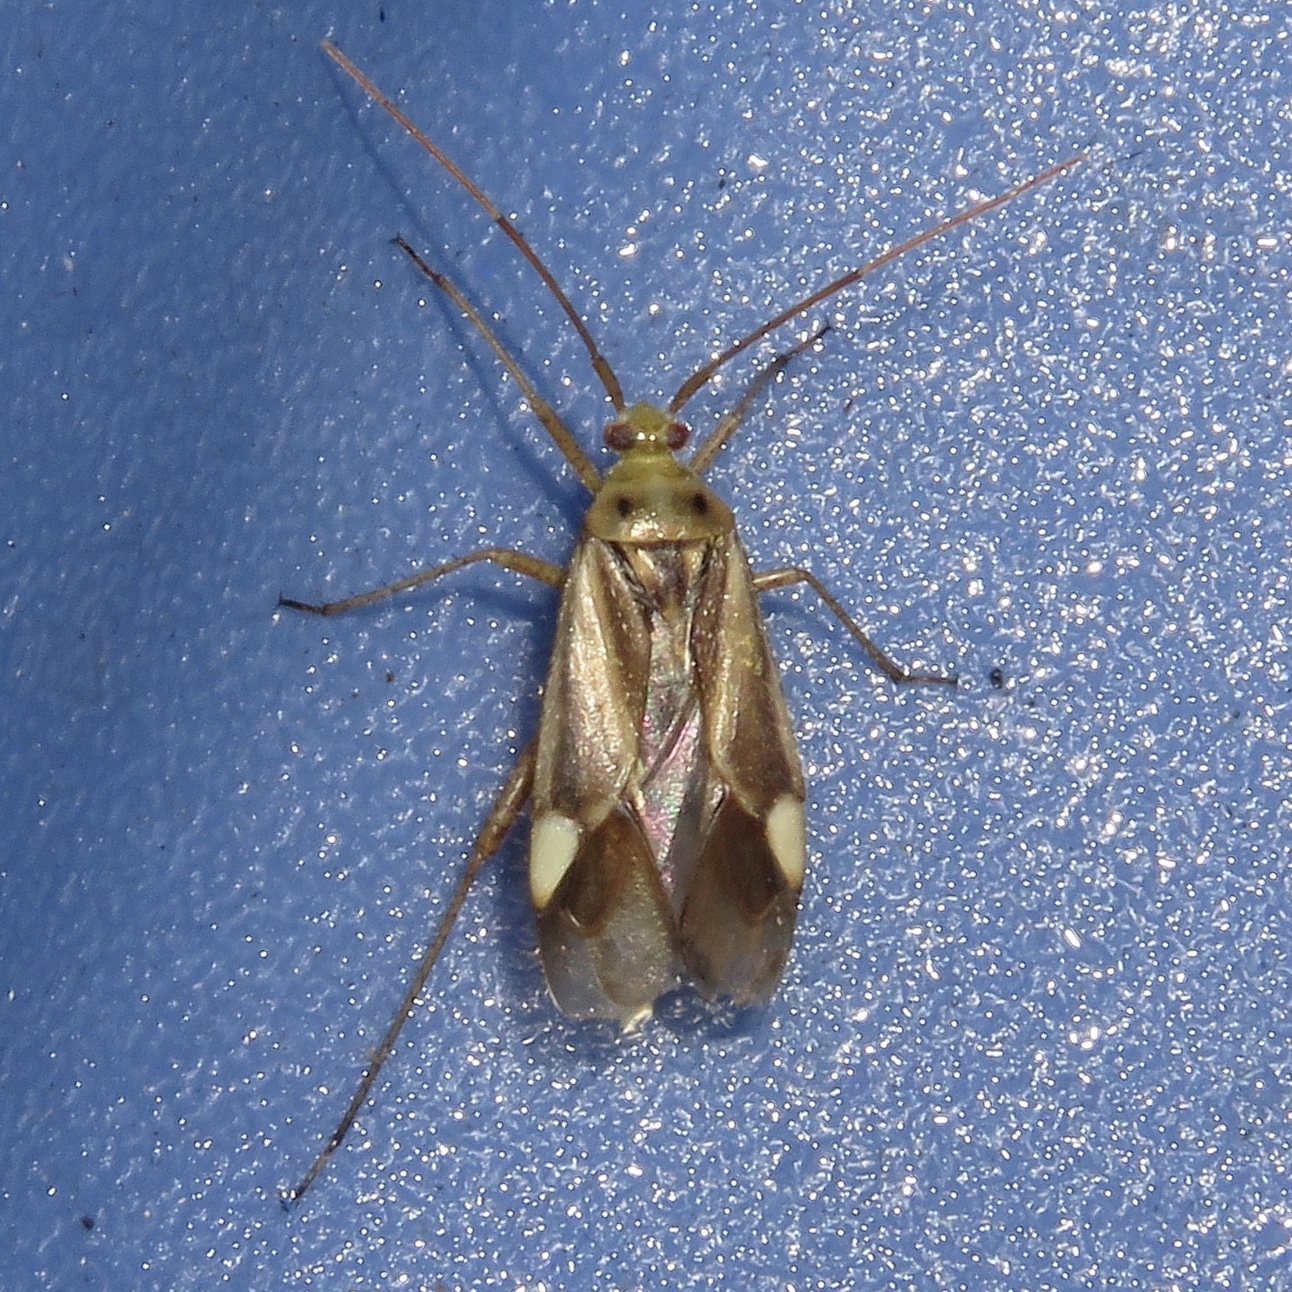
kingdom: Animalia
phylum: Arthropoda
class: Insecta
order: Hemiptera
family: Miridae
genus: Adelphocoris
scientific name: Adelphocoris lineolatus
